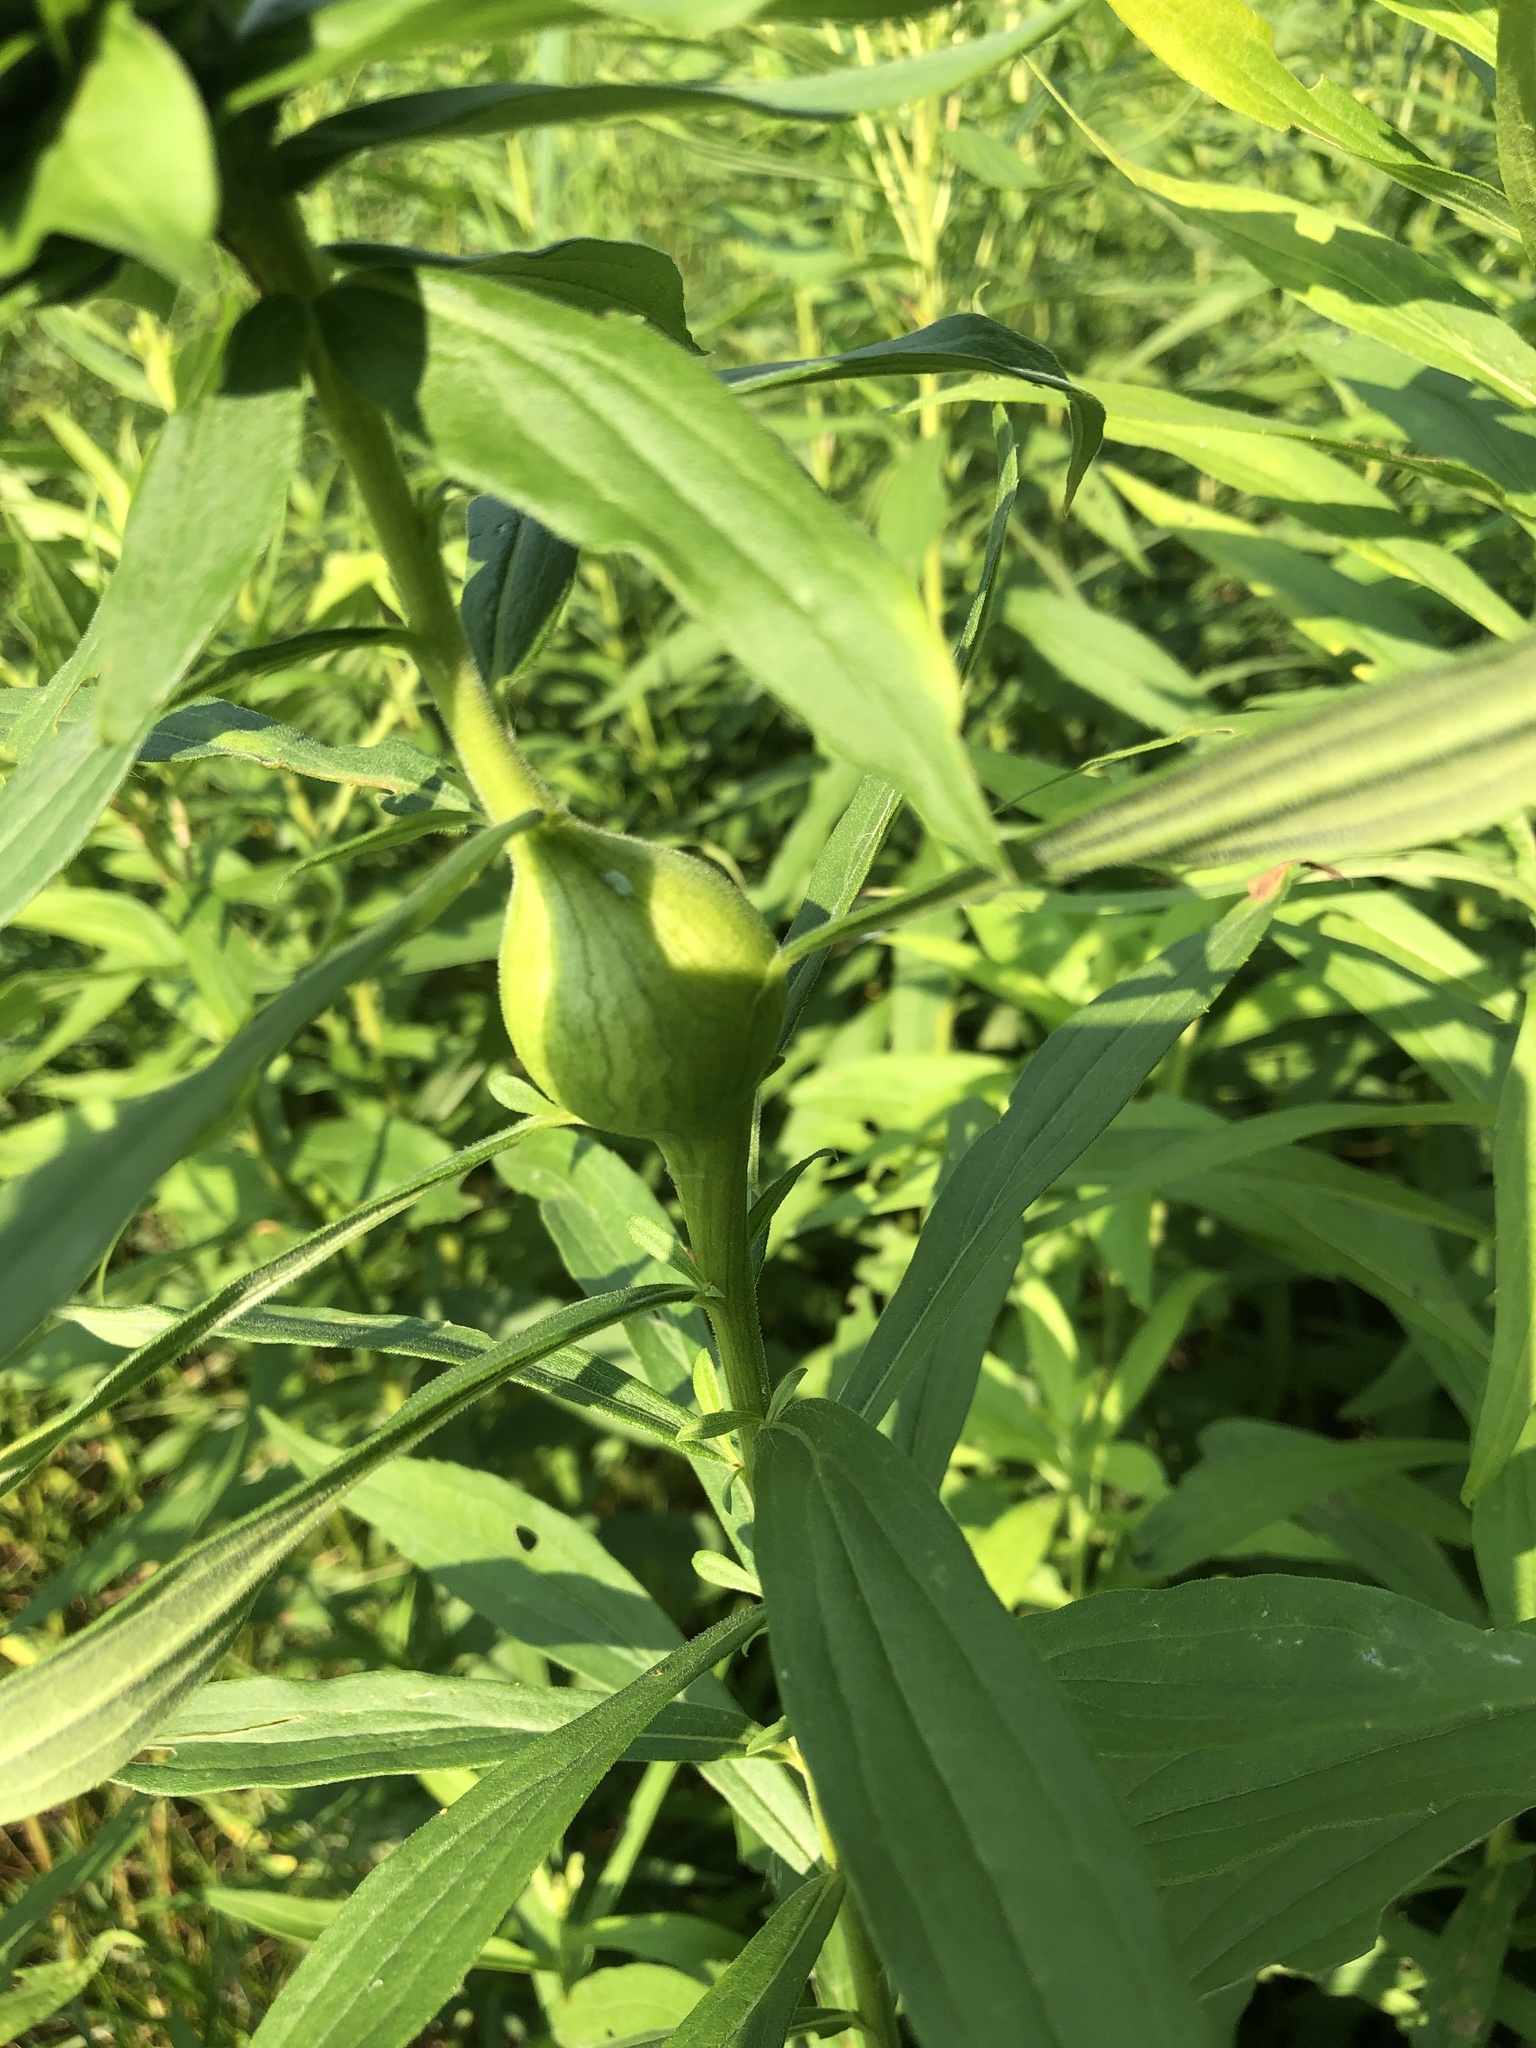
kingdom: Animalia
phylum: Arthropoda
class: Insecta
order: Diptera
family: Tephritidae
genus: Eurosta
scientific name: Eurosta solidaginis
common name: Goldenrod gall fly
